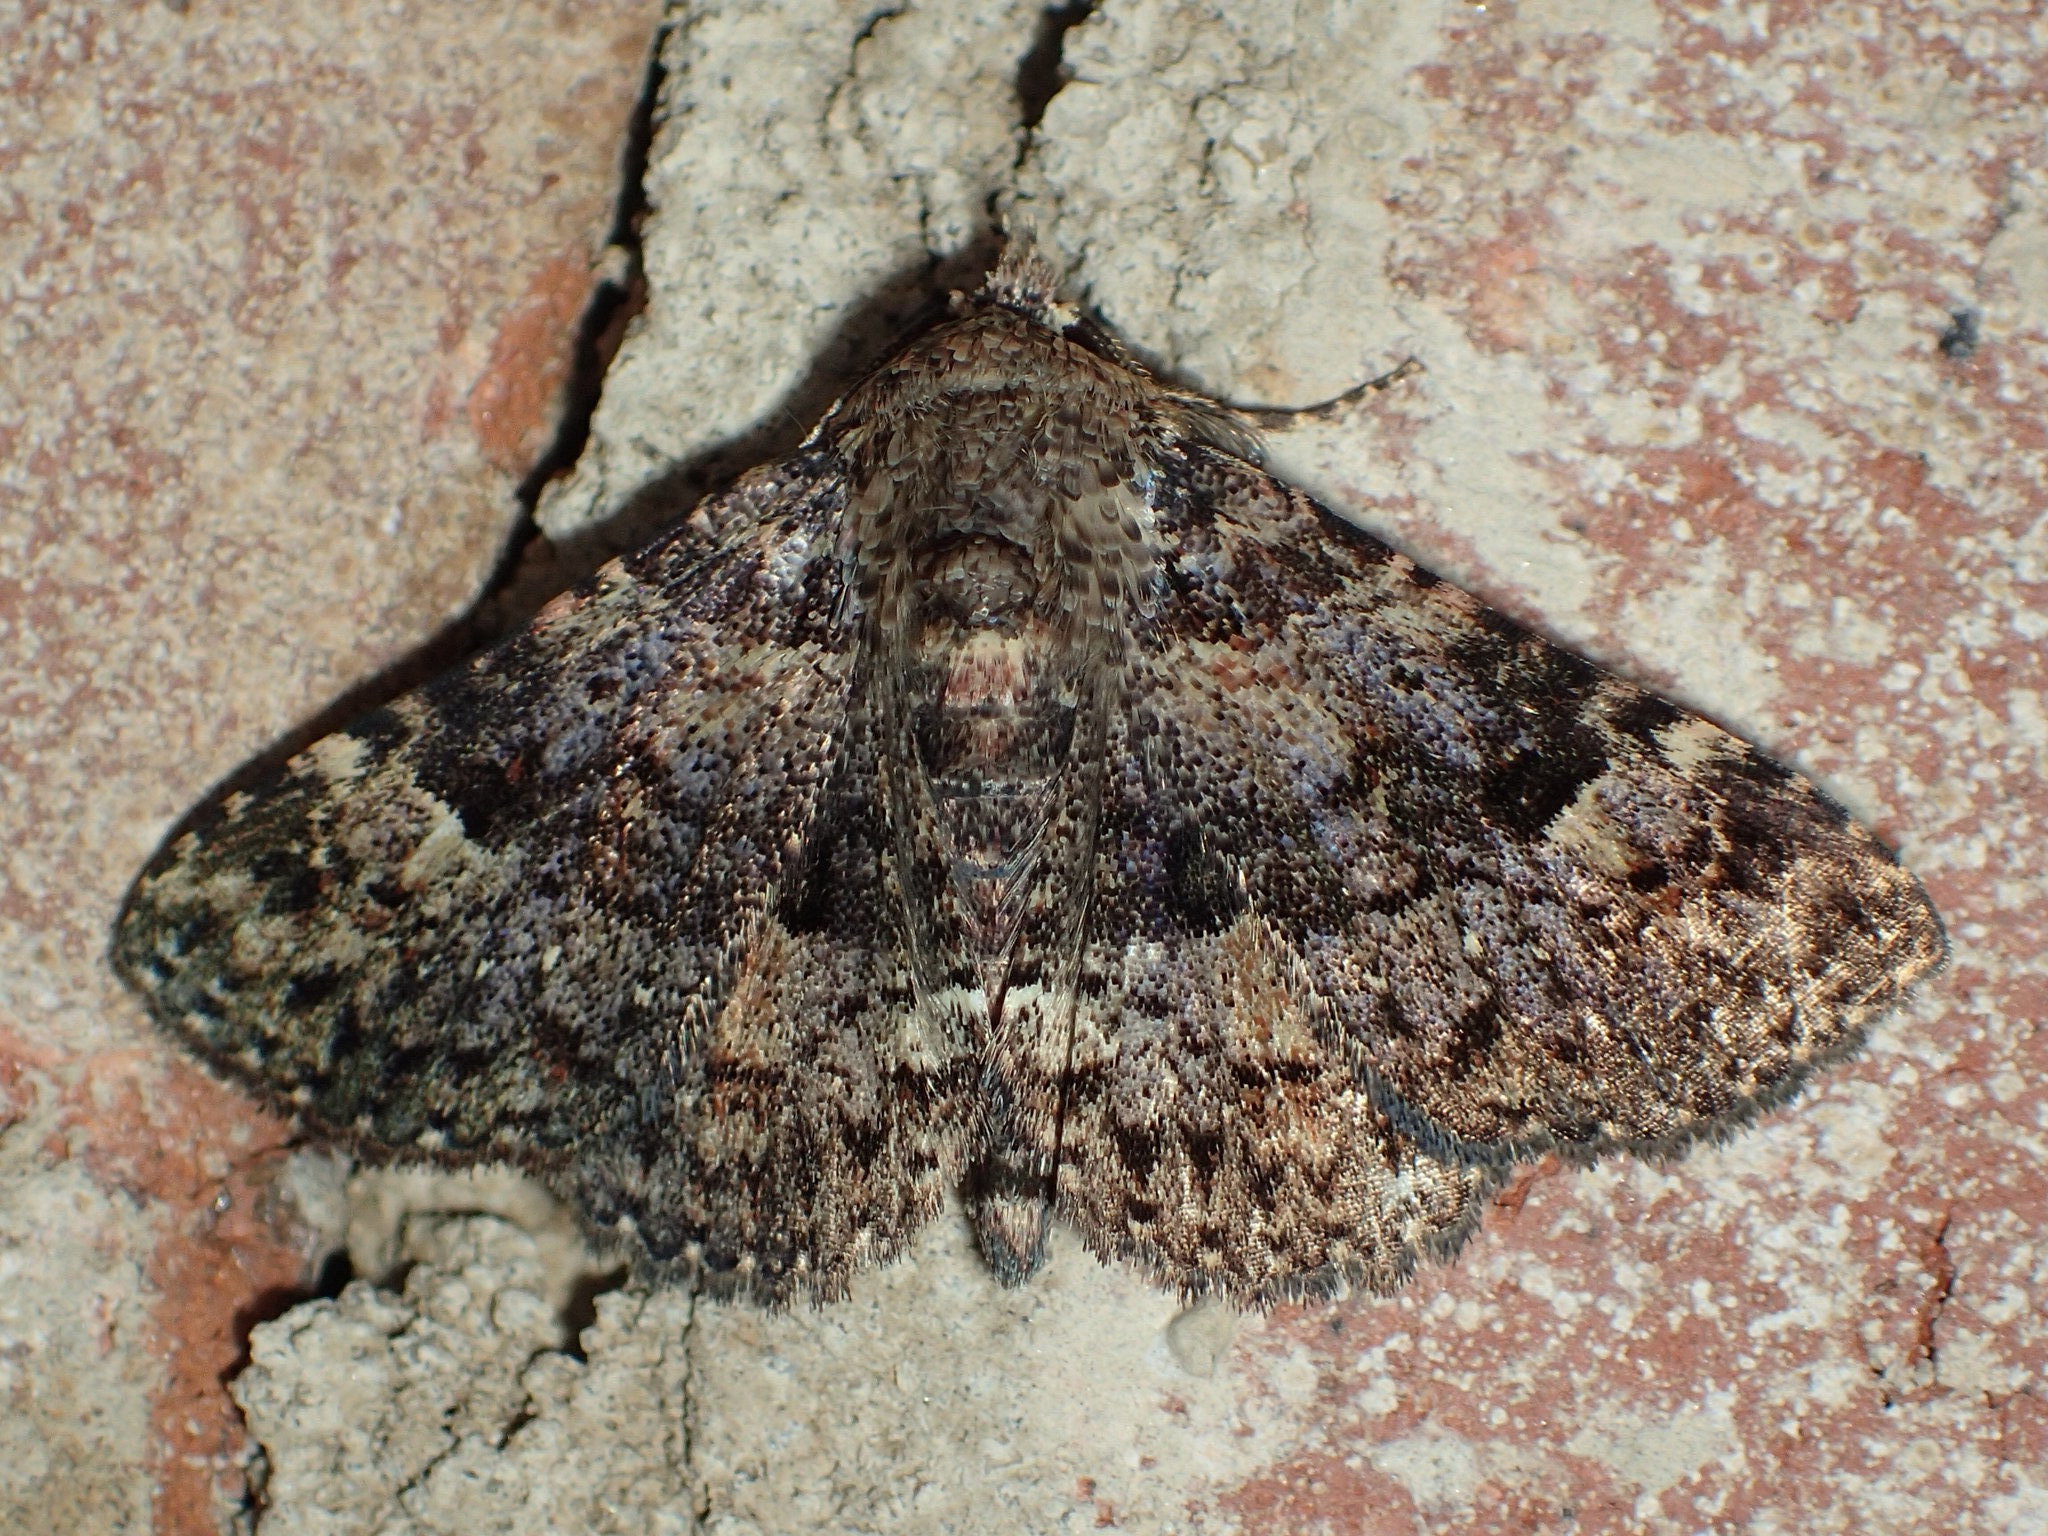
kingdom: Animalia
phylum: Arthropoda
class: Insecta
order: Lepidoptera
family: Erebidae
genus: Metalectra
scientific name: Metalectra discalis
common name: Common fungus moth
